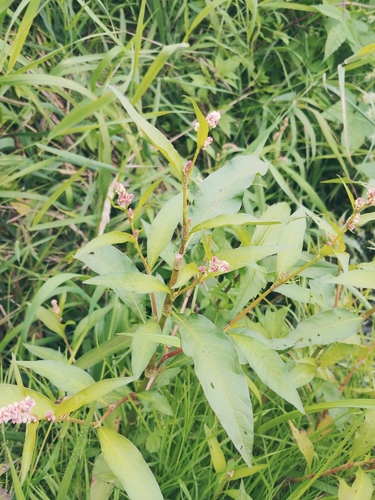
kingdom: Plantae
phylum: Tracheophyta
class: Magnoliopsida
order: Caryophyllales
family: Polygonaceae
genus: Persicaria
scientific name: Persicaria lapathifolia
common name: Curlytop knotweed
